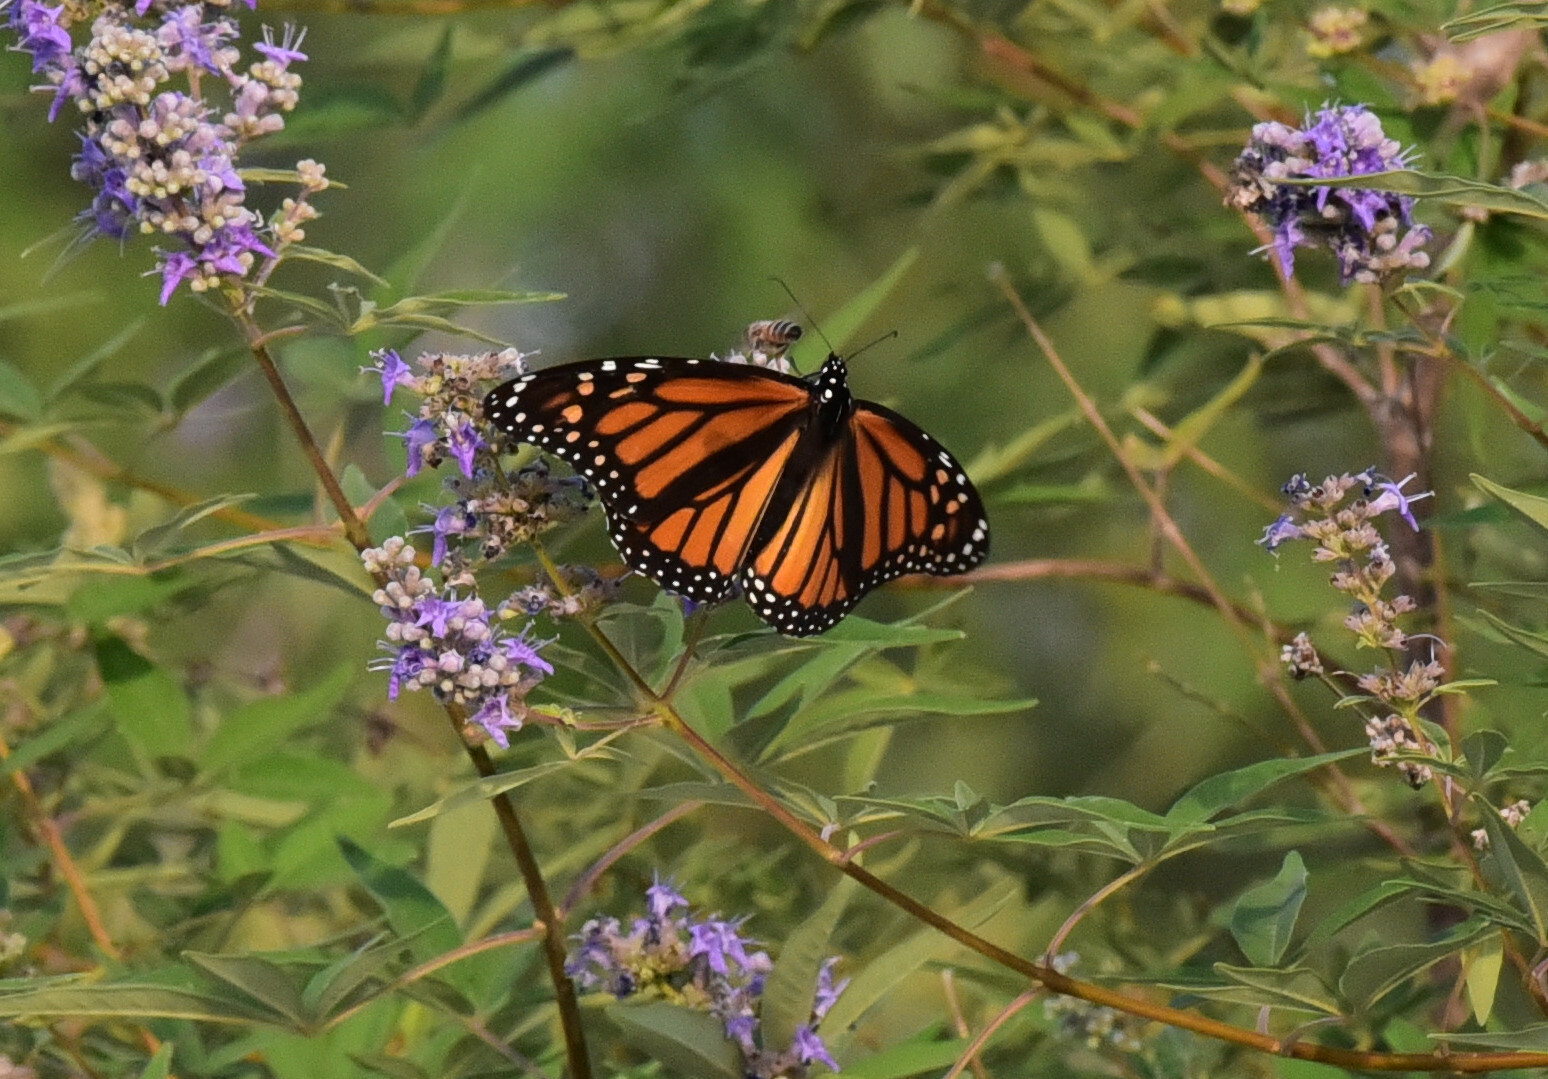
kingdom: Animalia
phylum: Arthropoda
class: Insecta
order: Lepidoptera
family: Nymphalidae
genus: Danaus
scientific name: Danaus plexippus
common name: Monarch
